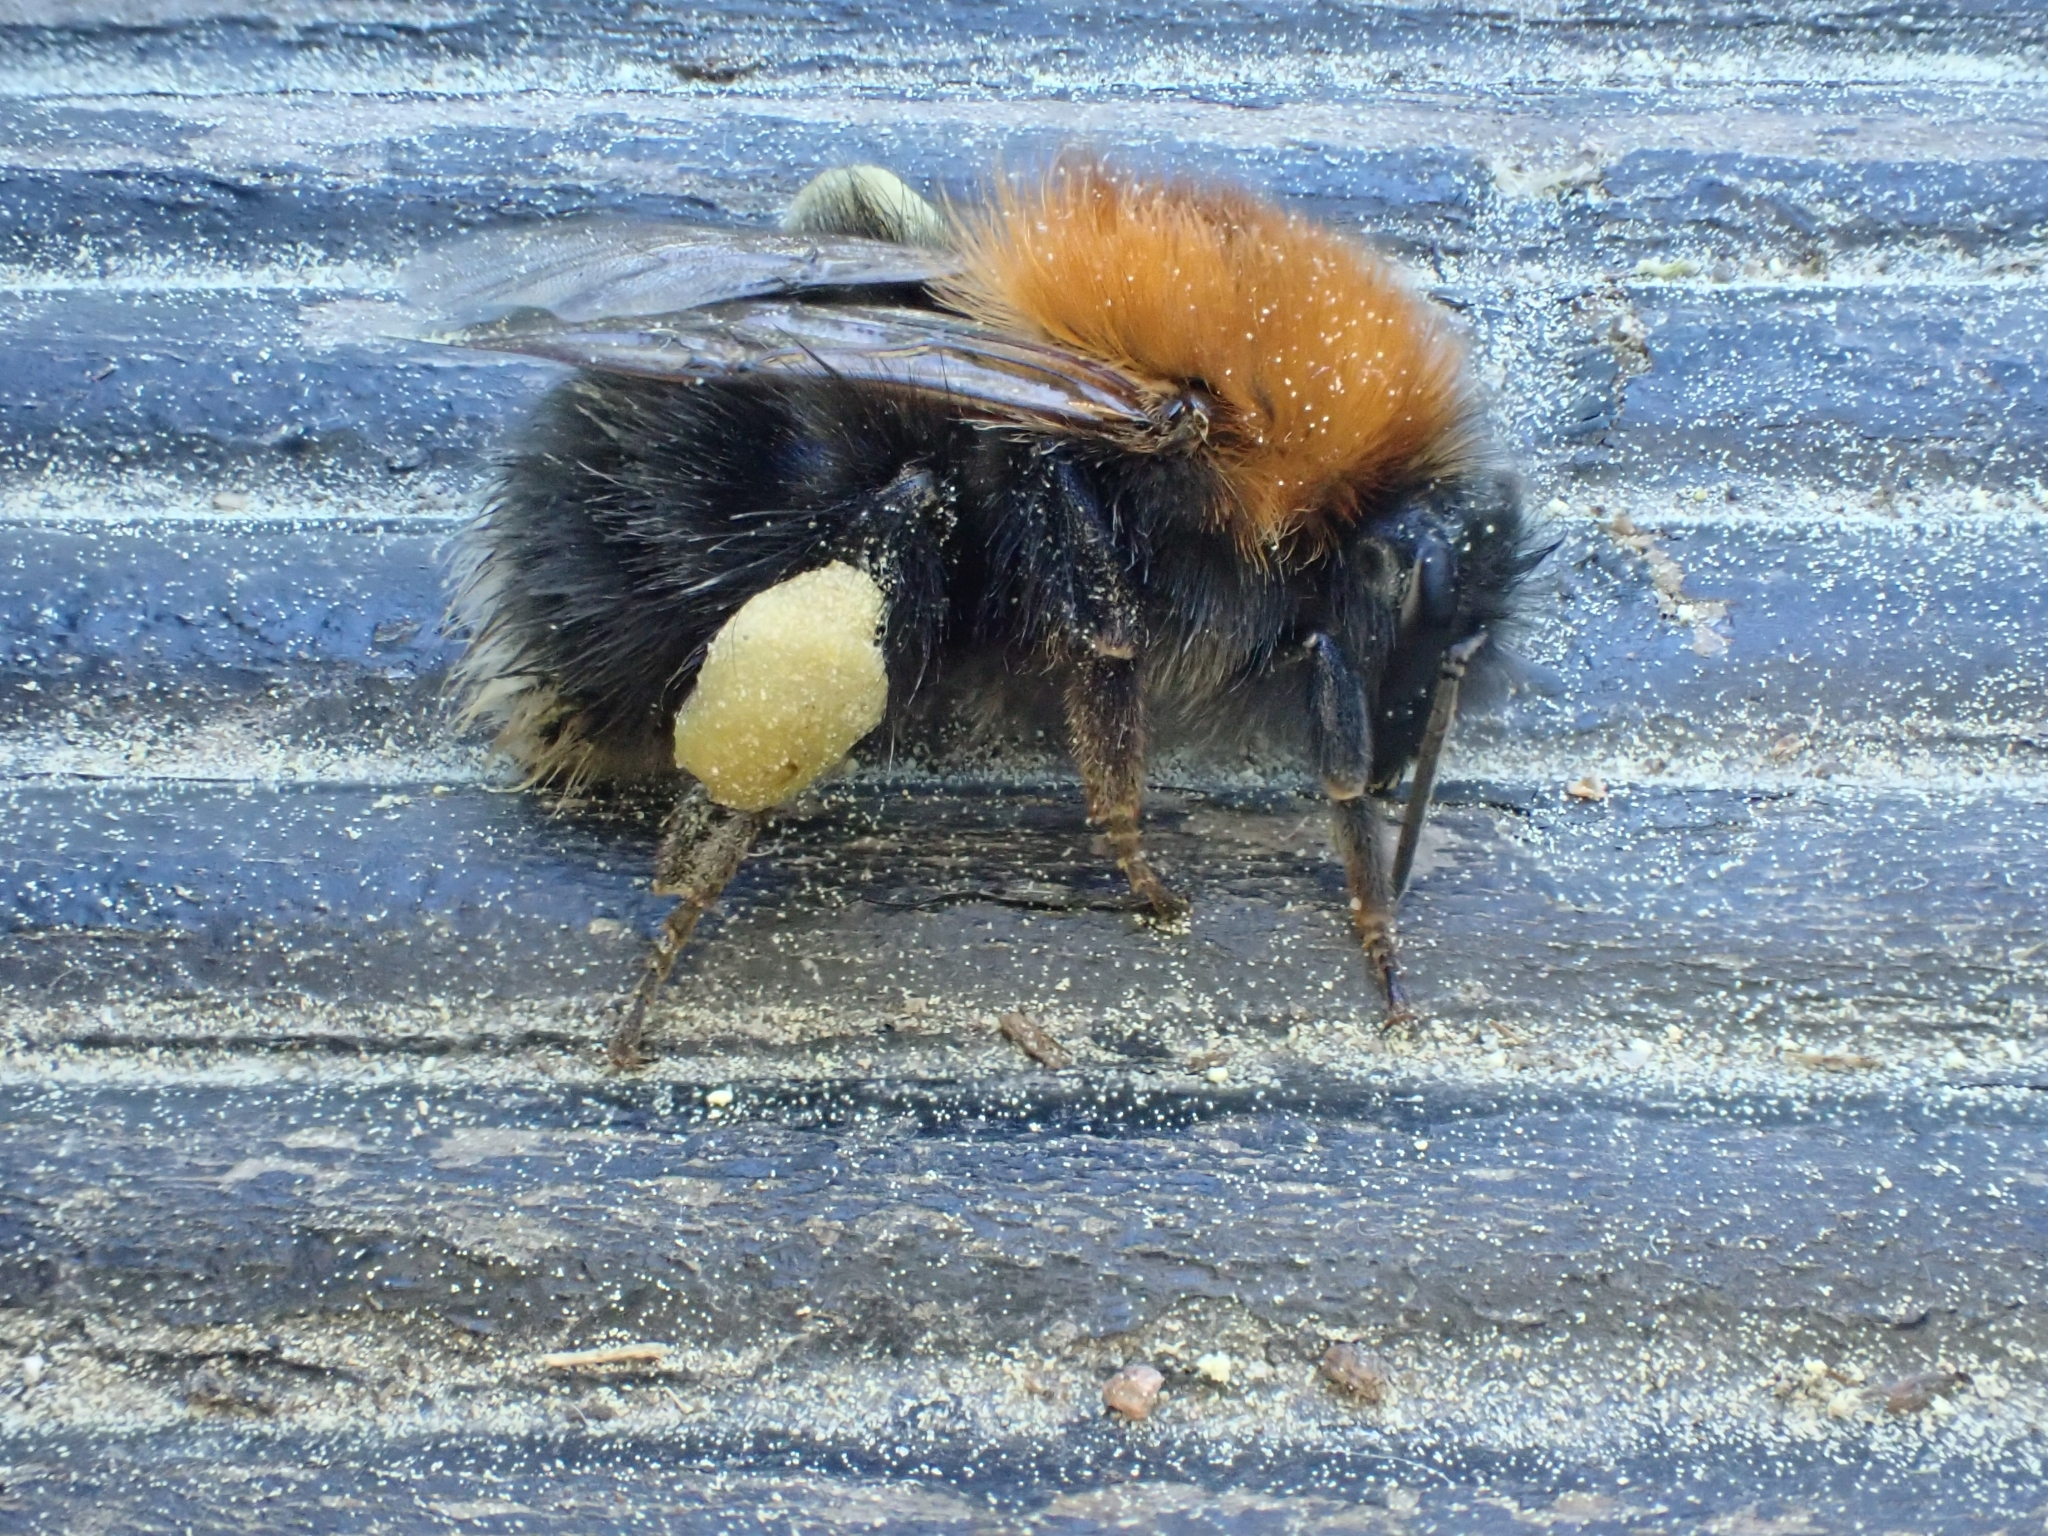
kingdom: Animalia
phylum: Arthropoda
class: Insecta
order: Hymenoptera
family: Apidae
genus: Bombus
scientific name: Bombus hypnorum
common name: New garden bumblebee
